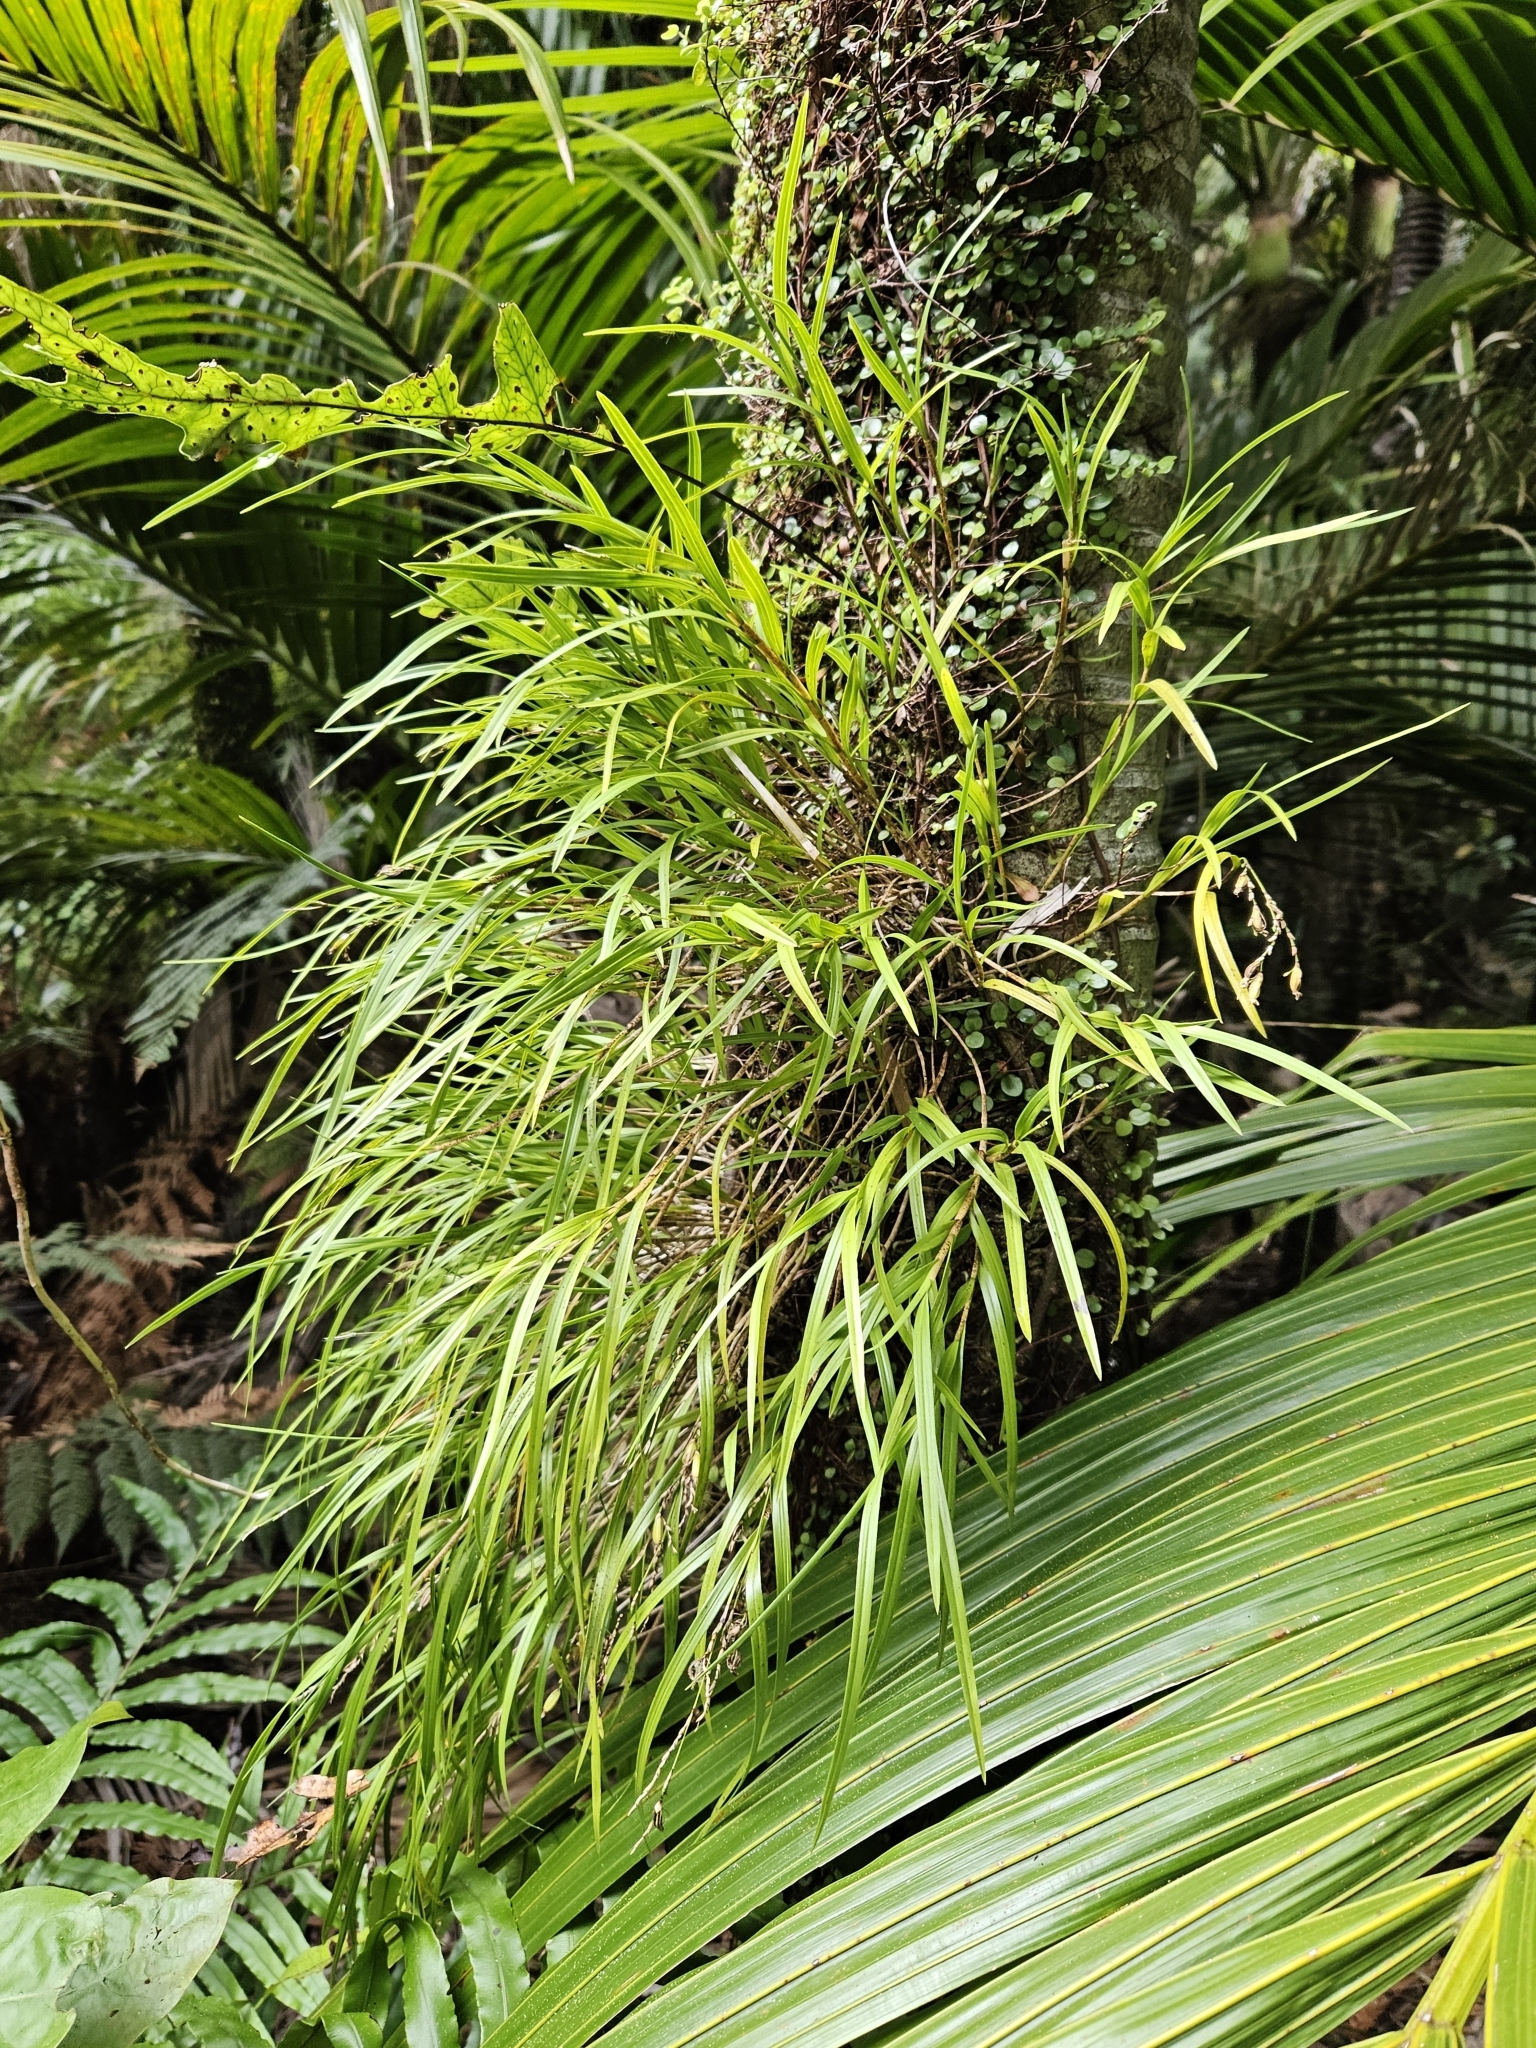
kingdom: Plantae
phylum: Tracheophyta
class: Liliopsida
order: Asparagales
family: Orchidaceae
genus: Earina
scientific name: Earina mucronata
